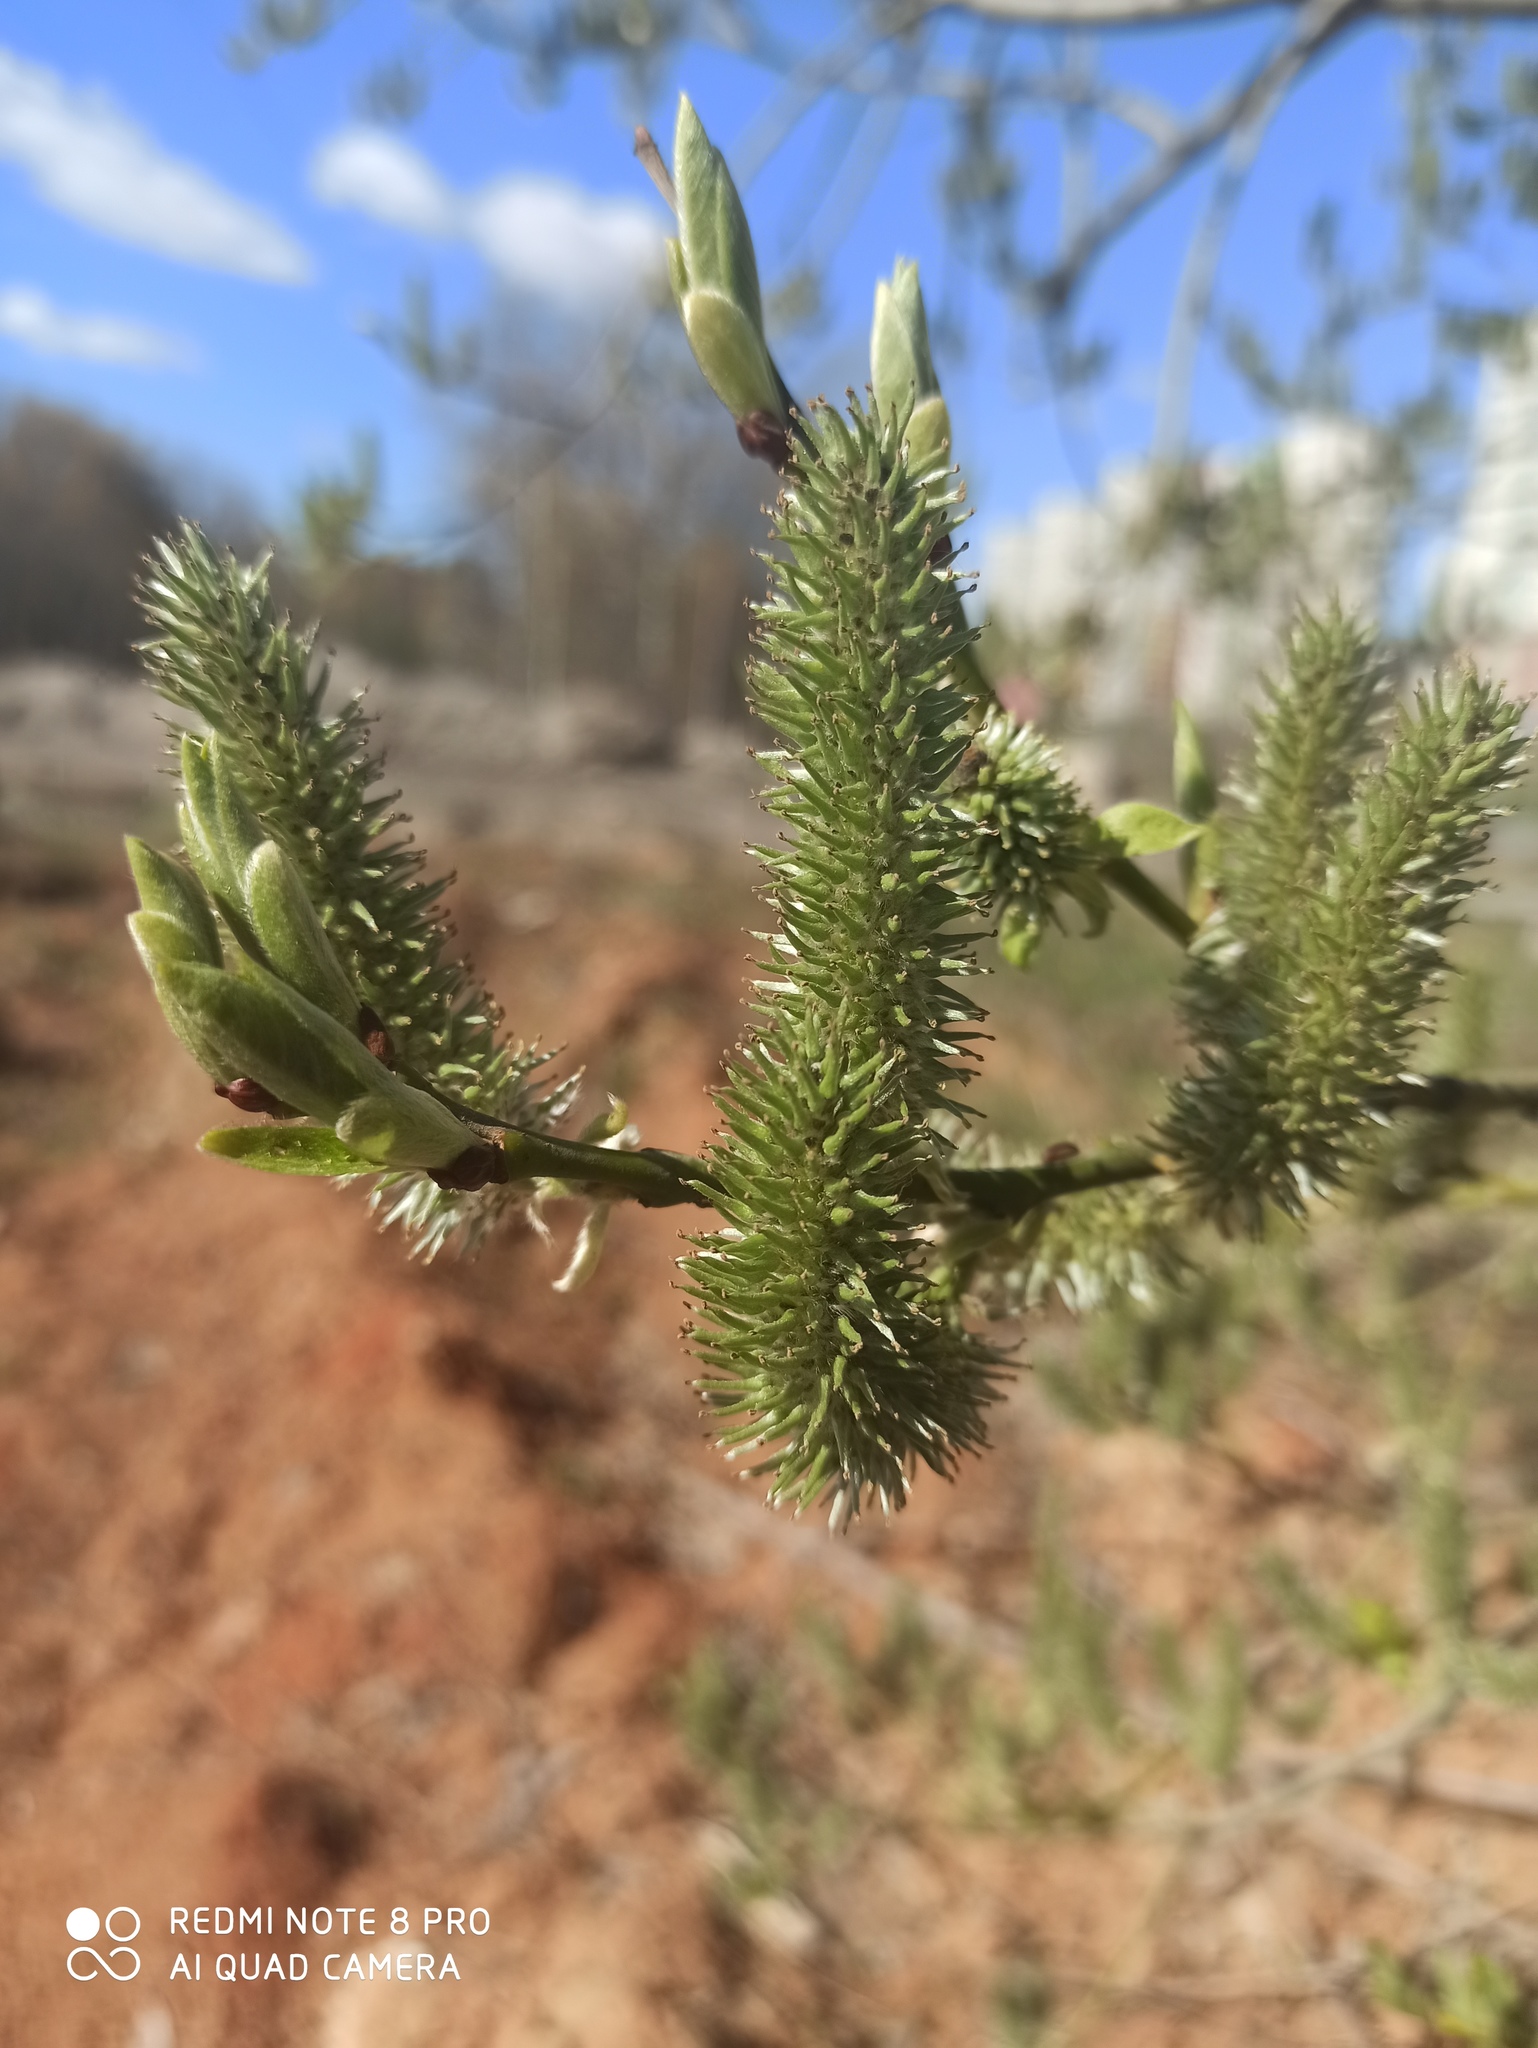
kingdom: Plantae
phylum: Tracheophyta
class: Magnoliopsida
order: Malpighiales
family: Salicaceae
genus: Salix
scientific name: Salix caprea
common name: Goat willow
